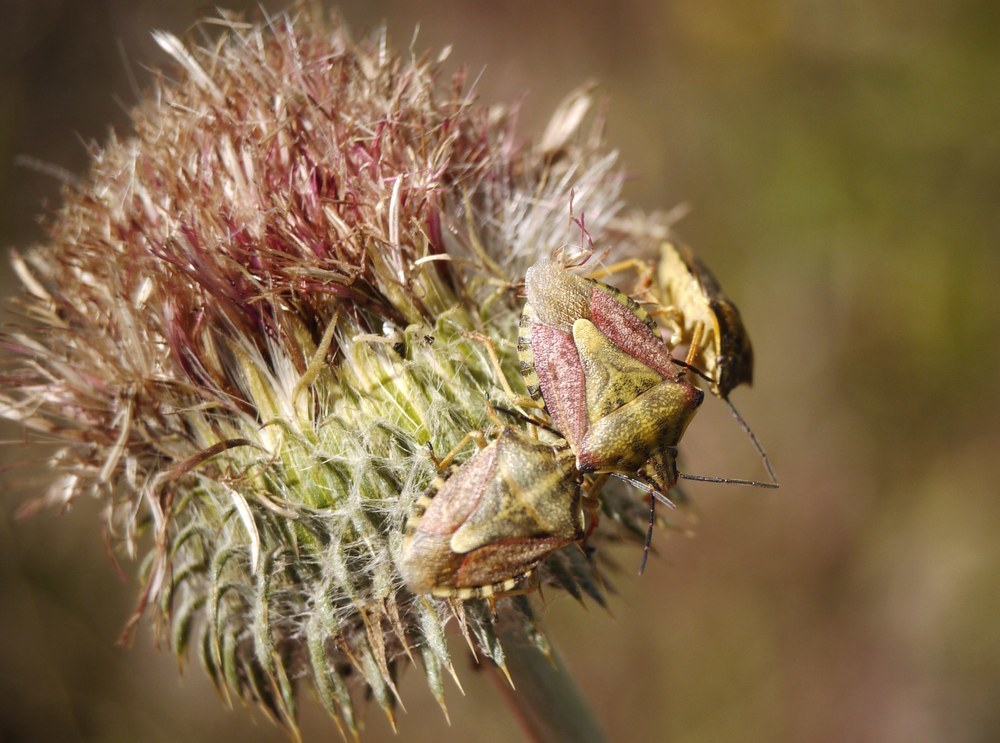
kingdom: Animalia
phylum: Arthropoda
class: Insecta
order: Hemiptera
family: Pentatomidae
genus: Carpocoris
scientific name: Carpocoris purpureipennis
